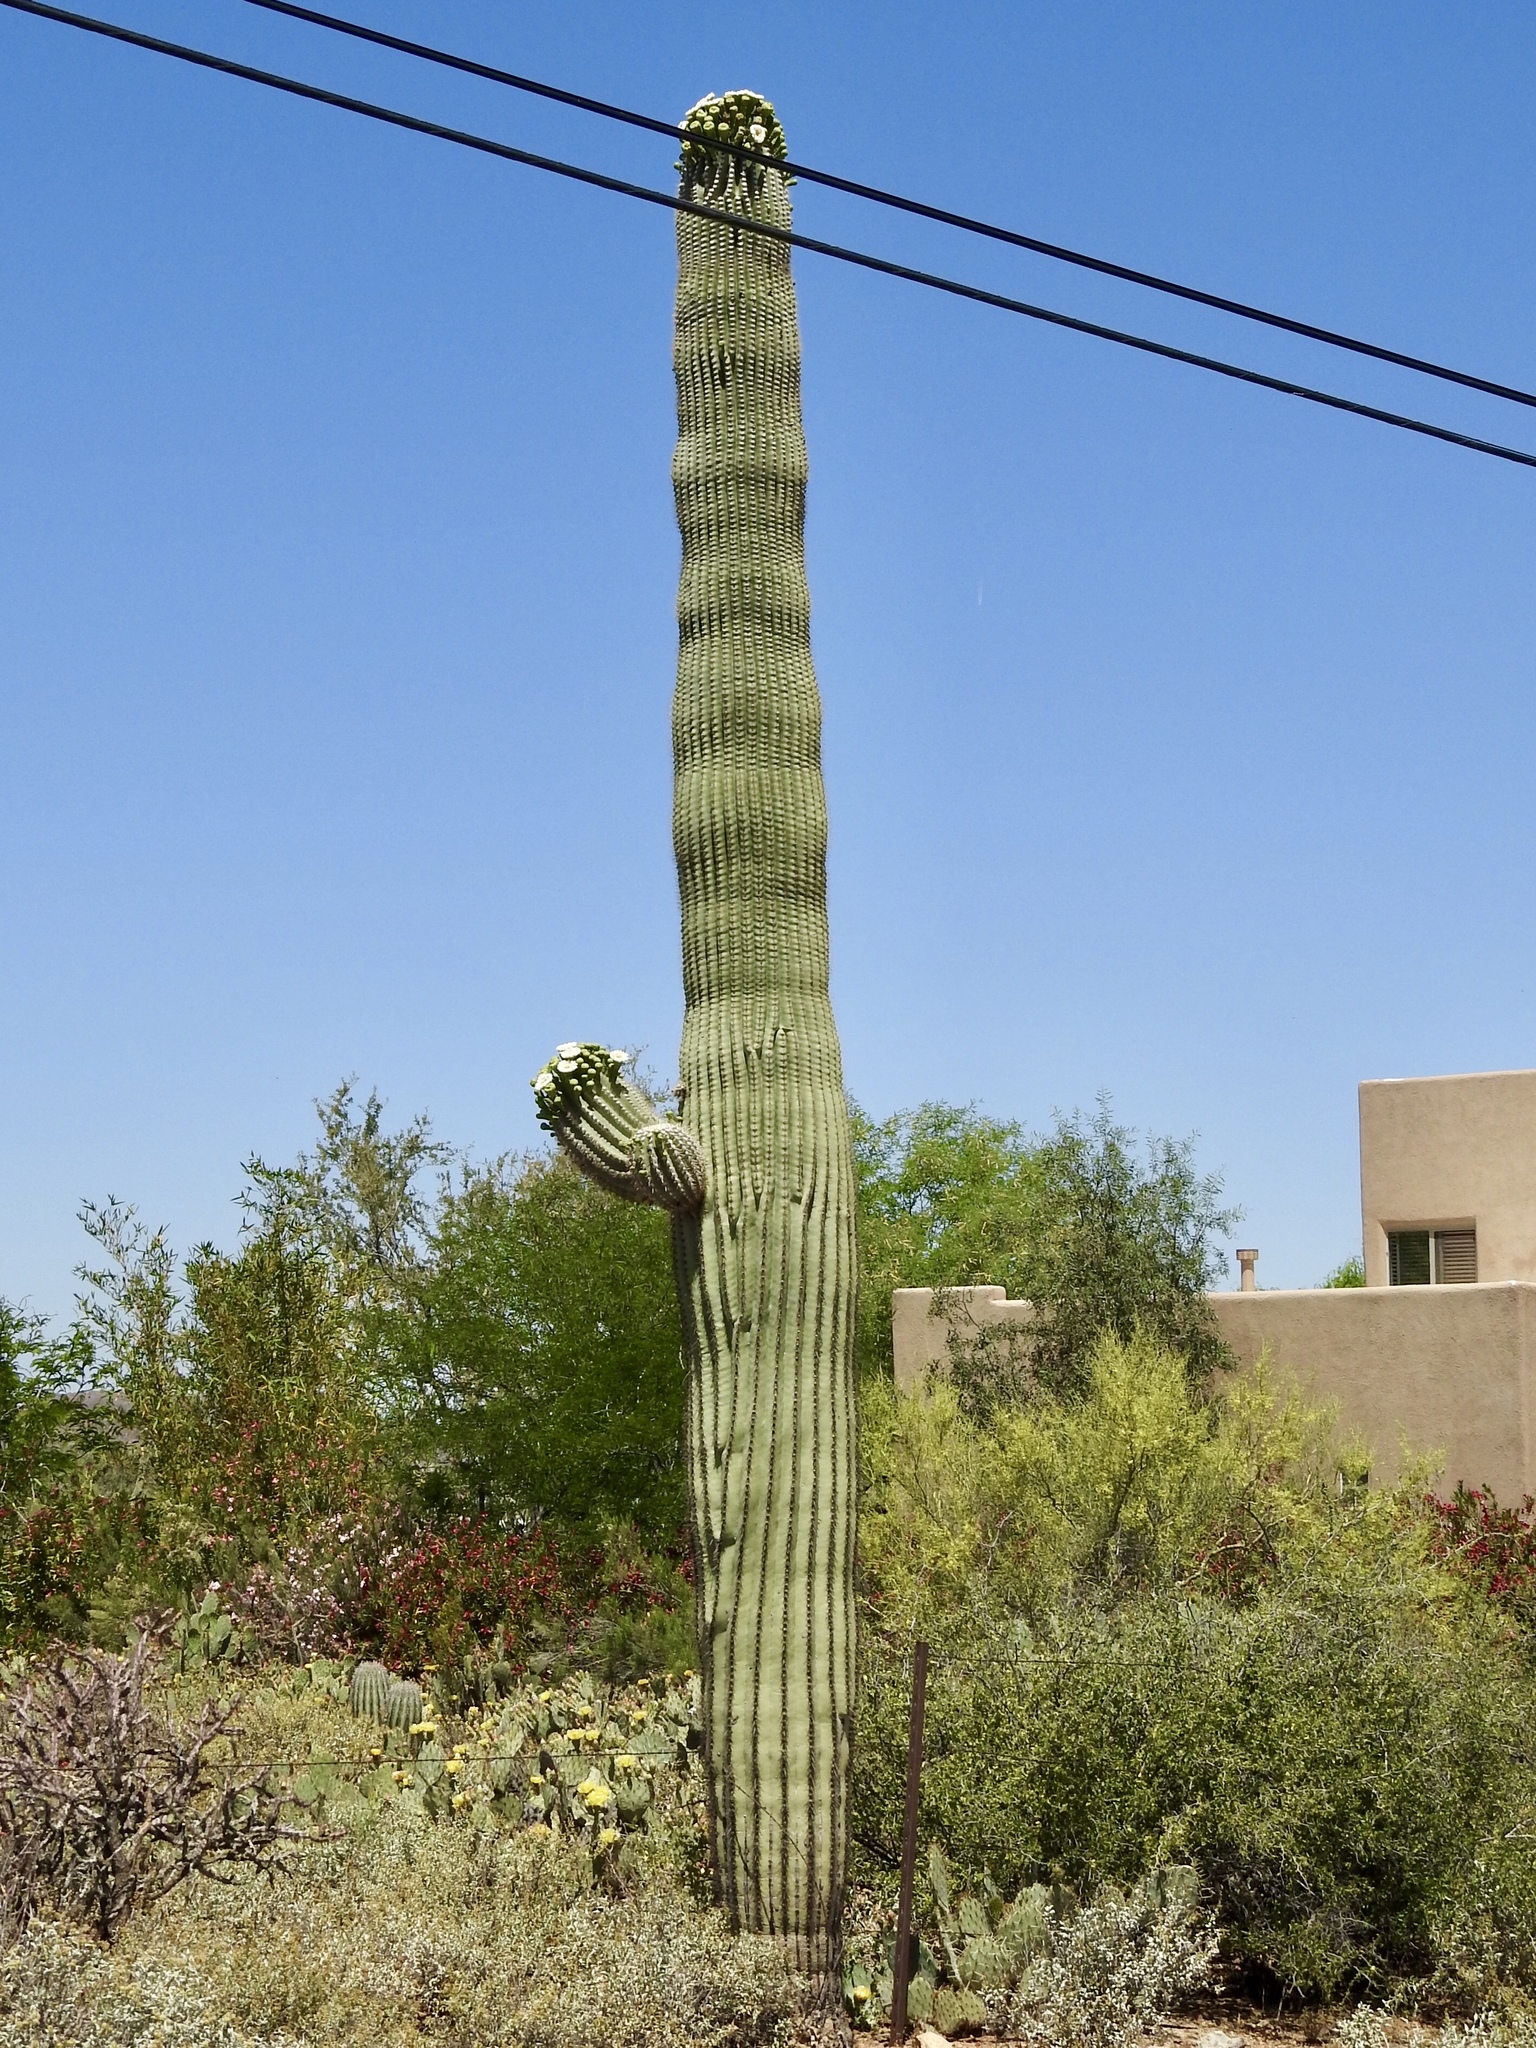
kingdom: Plantae
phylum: Tracheophyta
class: Magnoliopsida
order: Caryophyllales
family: Cactaceae
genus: Carnegiea
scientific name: Carnegiea gigantea
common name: Saguaro
